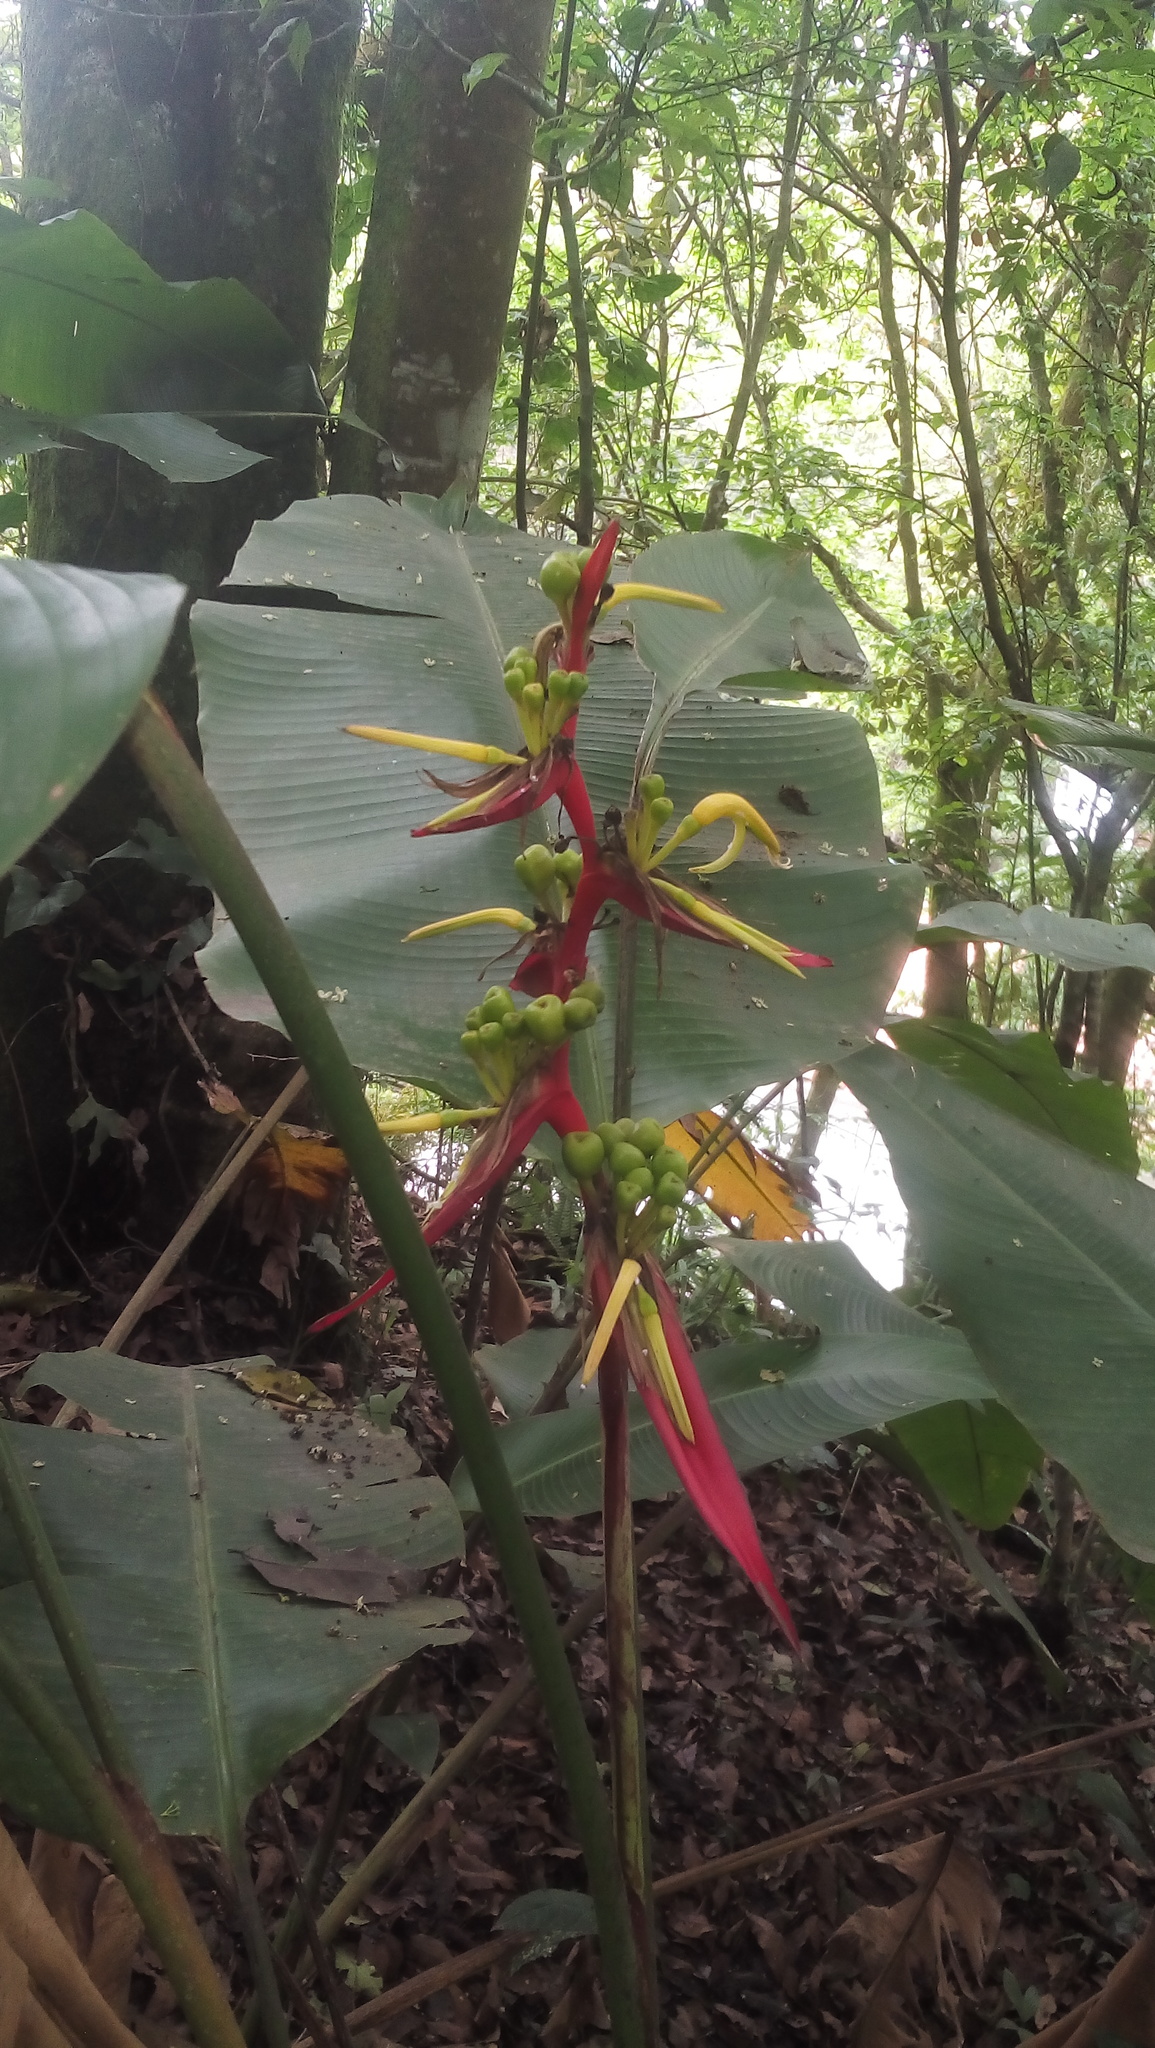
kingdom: Plantae
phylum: Tracheophyta
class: Liliopsida
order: Zingiberales
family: Heliconiaceae
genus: Heliconia
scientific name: Heliconia schiedeana
